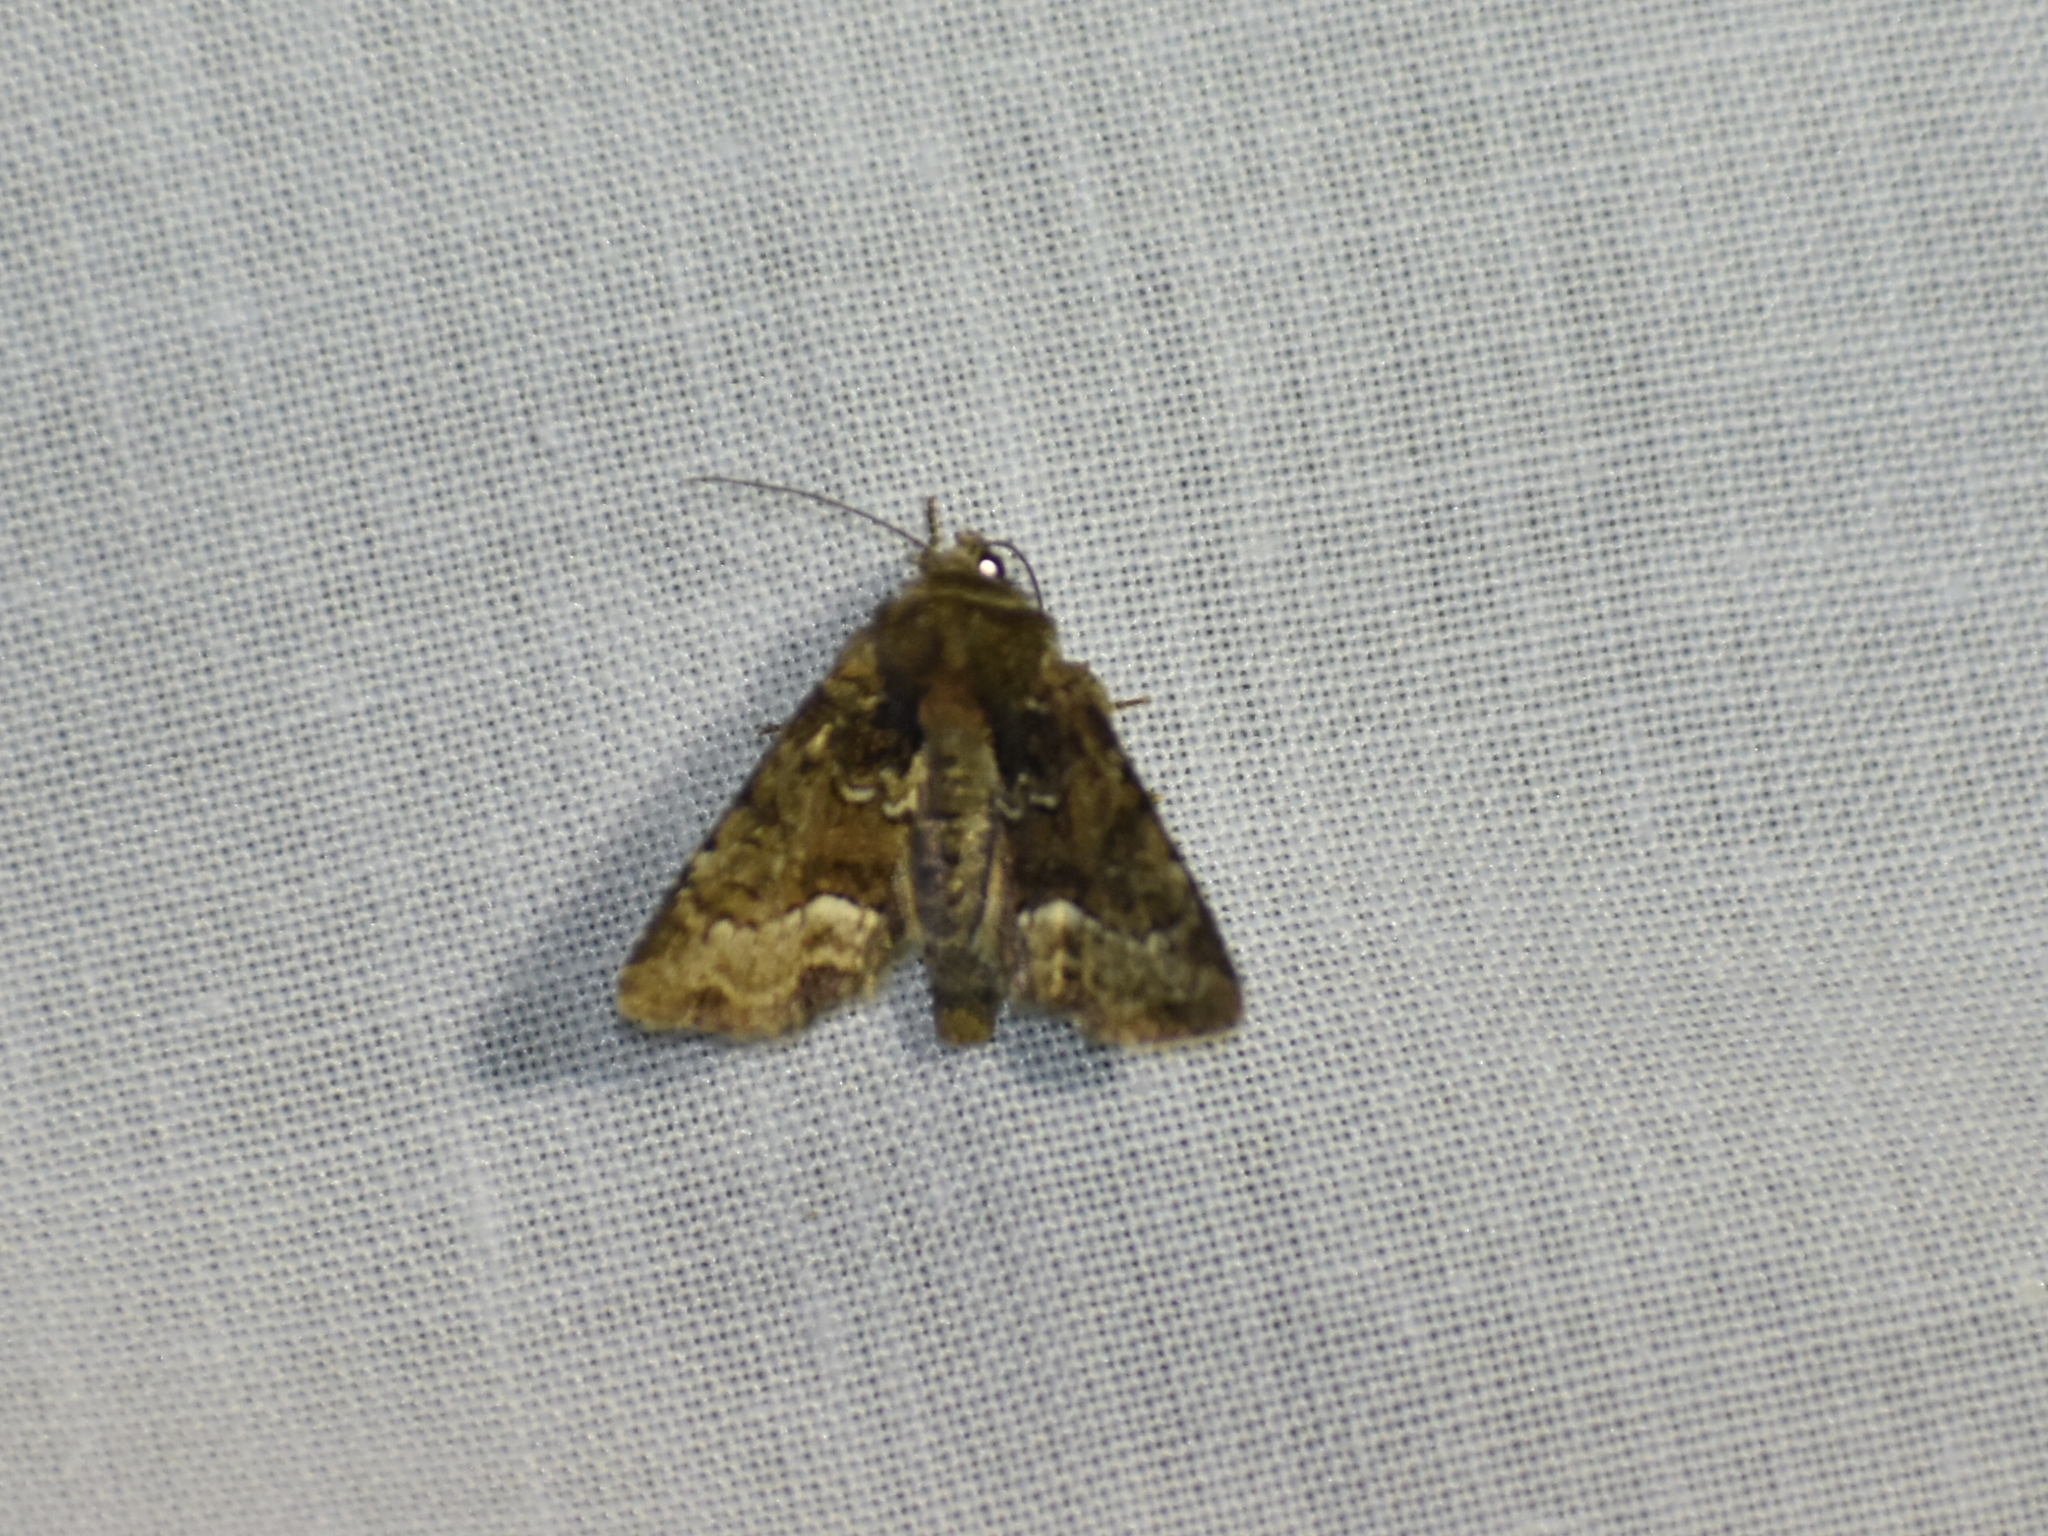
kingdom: Animalia
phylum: Arthropoda
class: Insecta
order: Lepidoptera
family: Noctuidae
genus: Oligia
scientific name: Oligia strigilis
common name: Marbled minor
